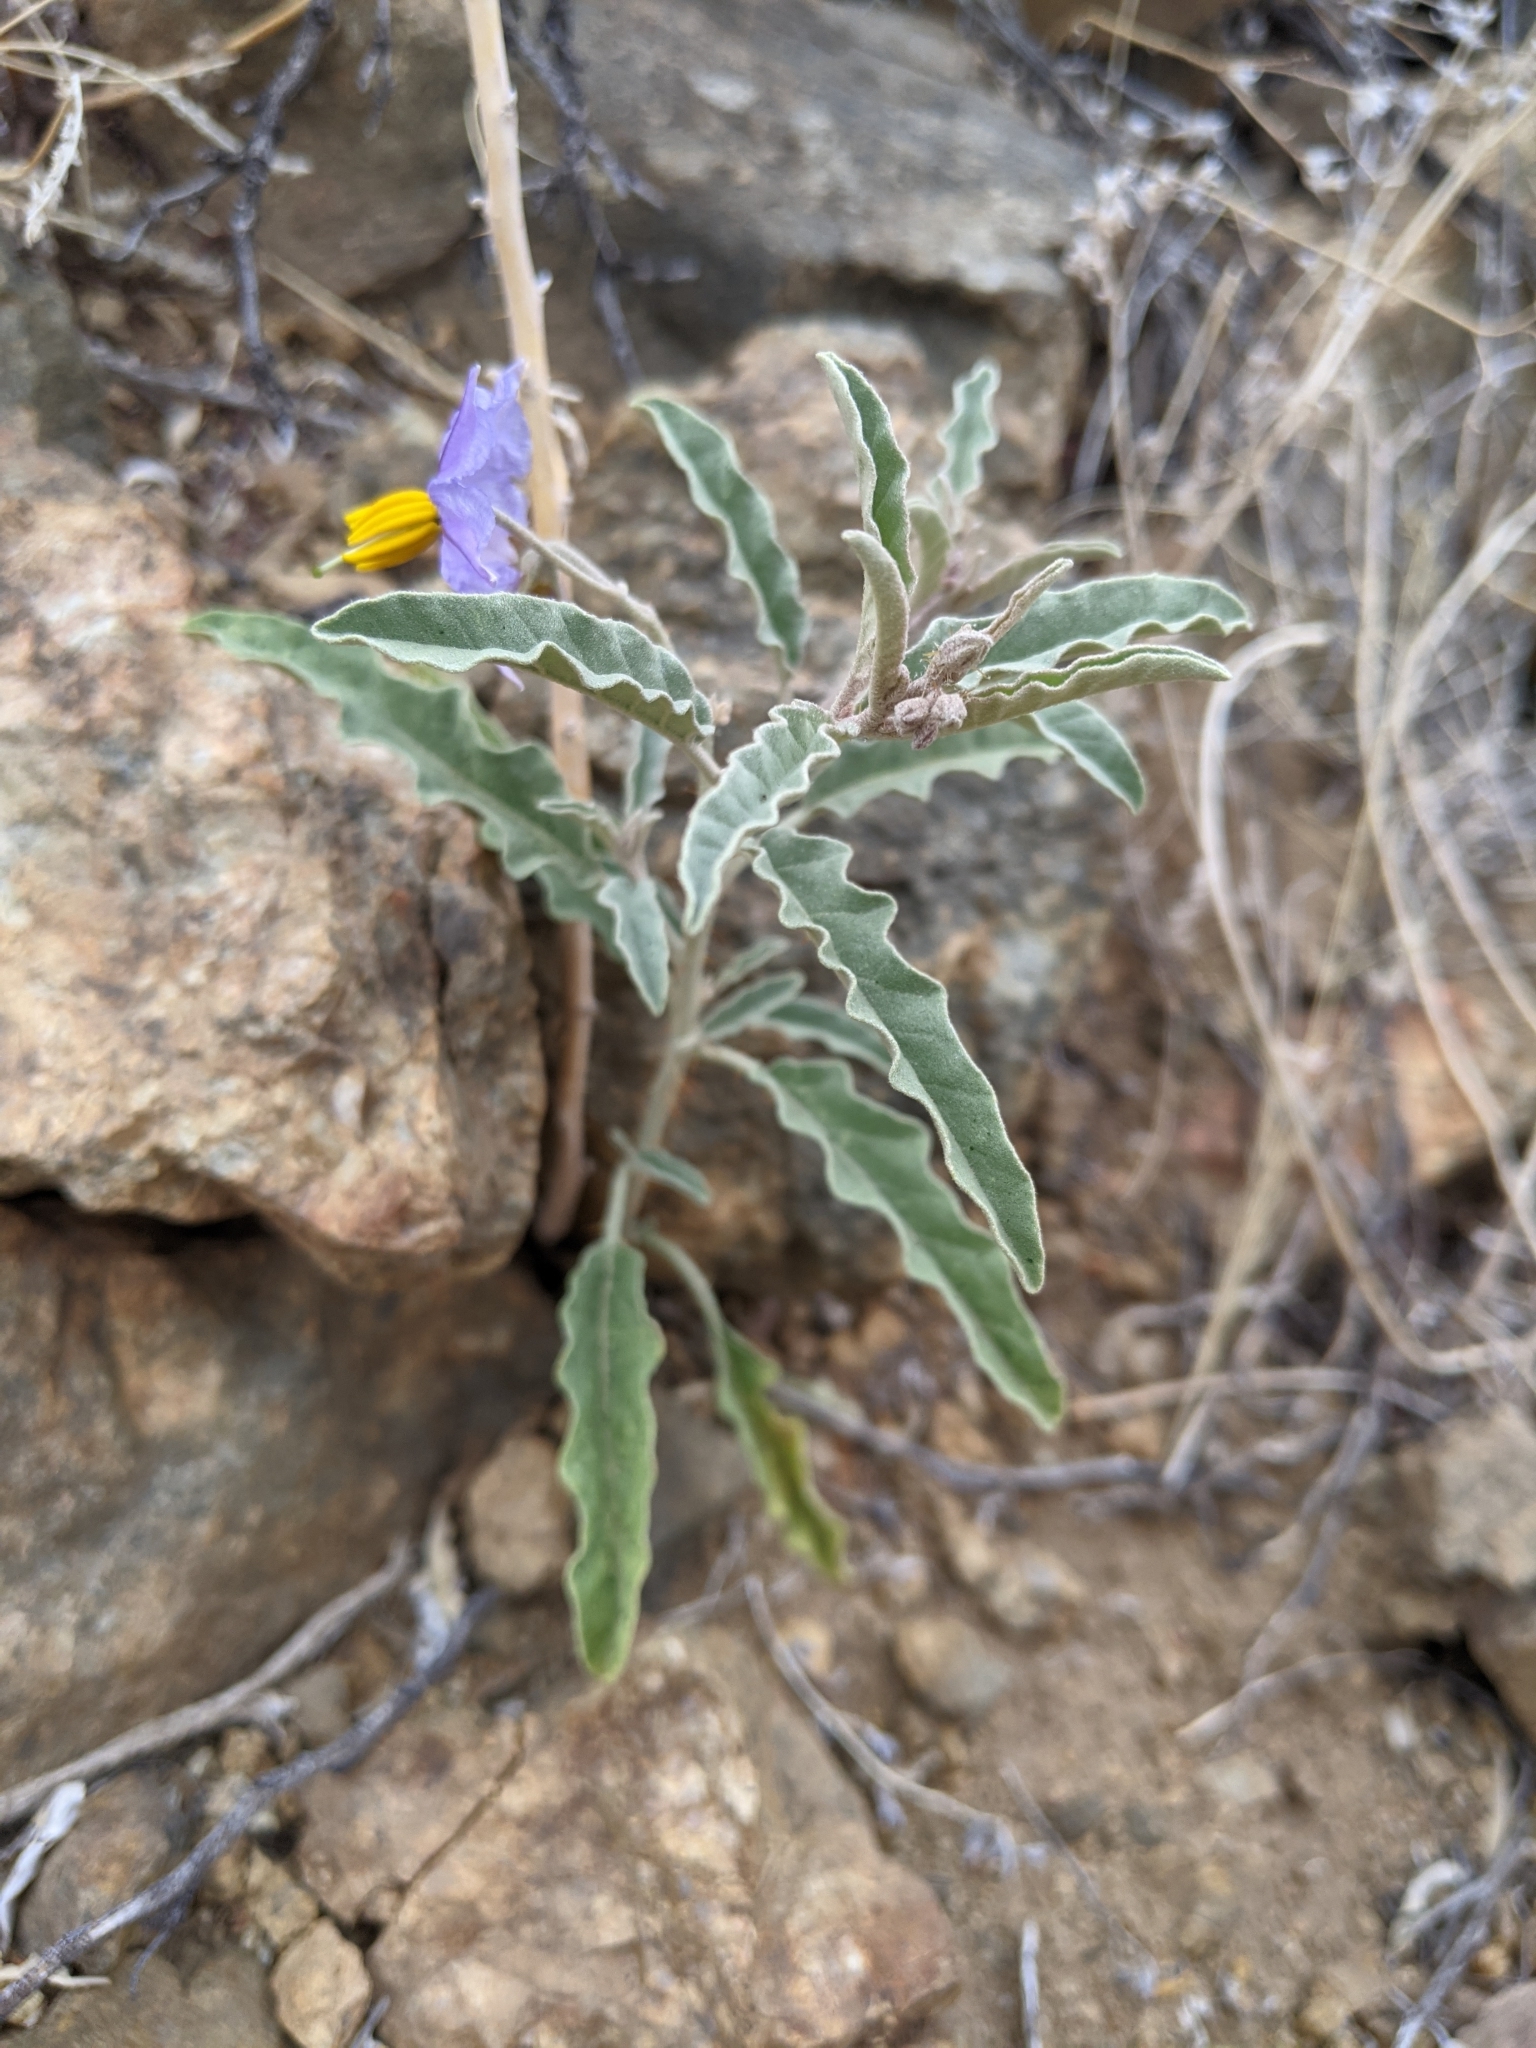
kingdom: Plantae
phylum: Tracheophyta
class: Magnoliopsida
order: Solanales
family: Solanaceae
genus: Solanum
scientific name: Solanum elaeagnifolium
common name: Silverleaf nightshade
